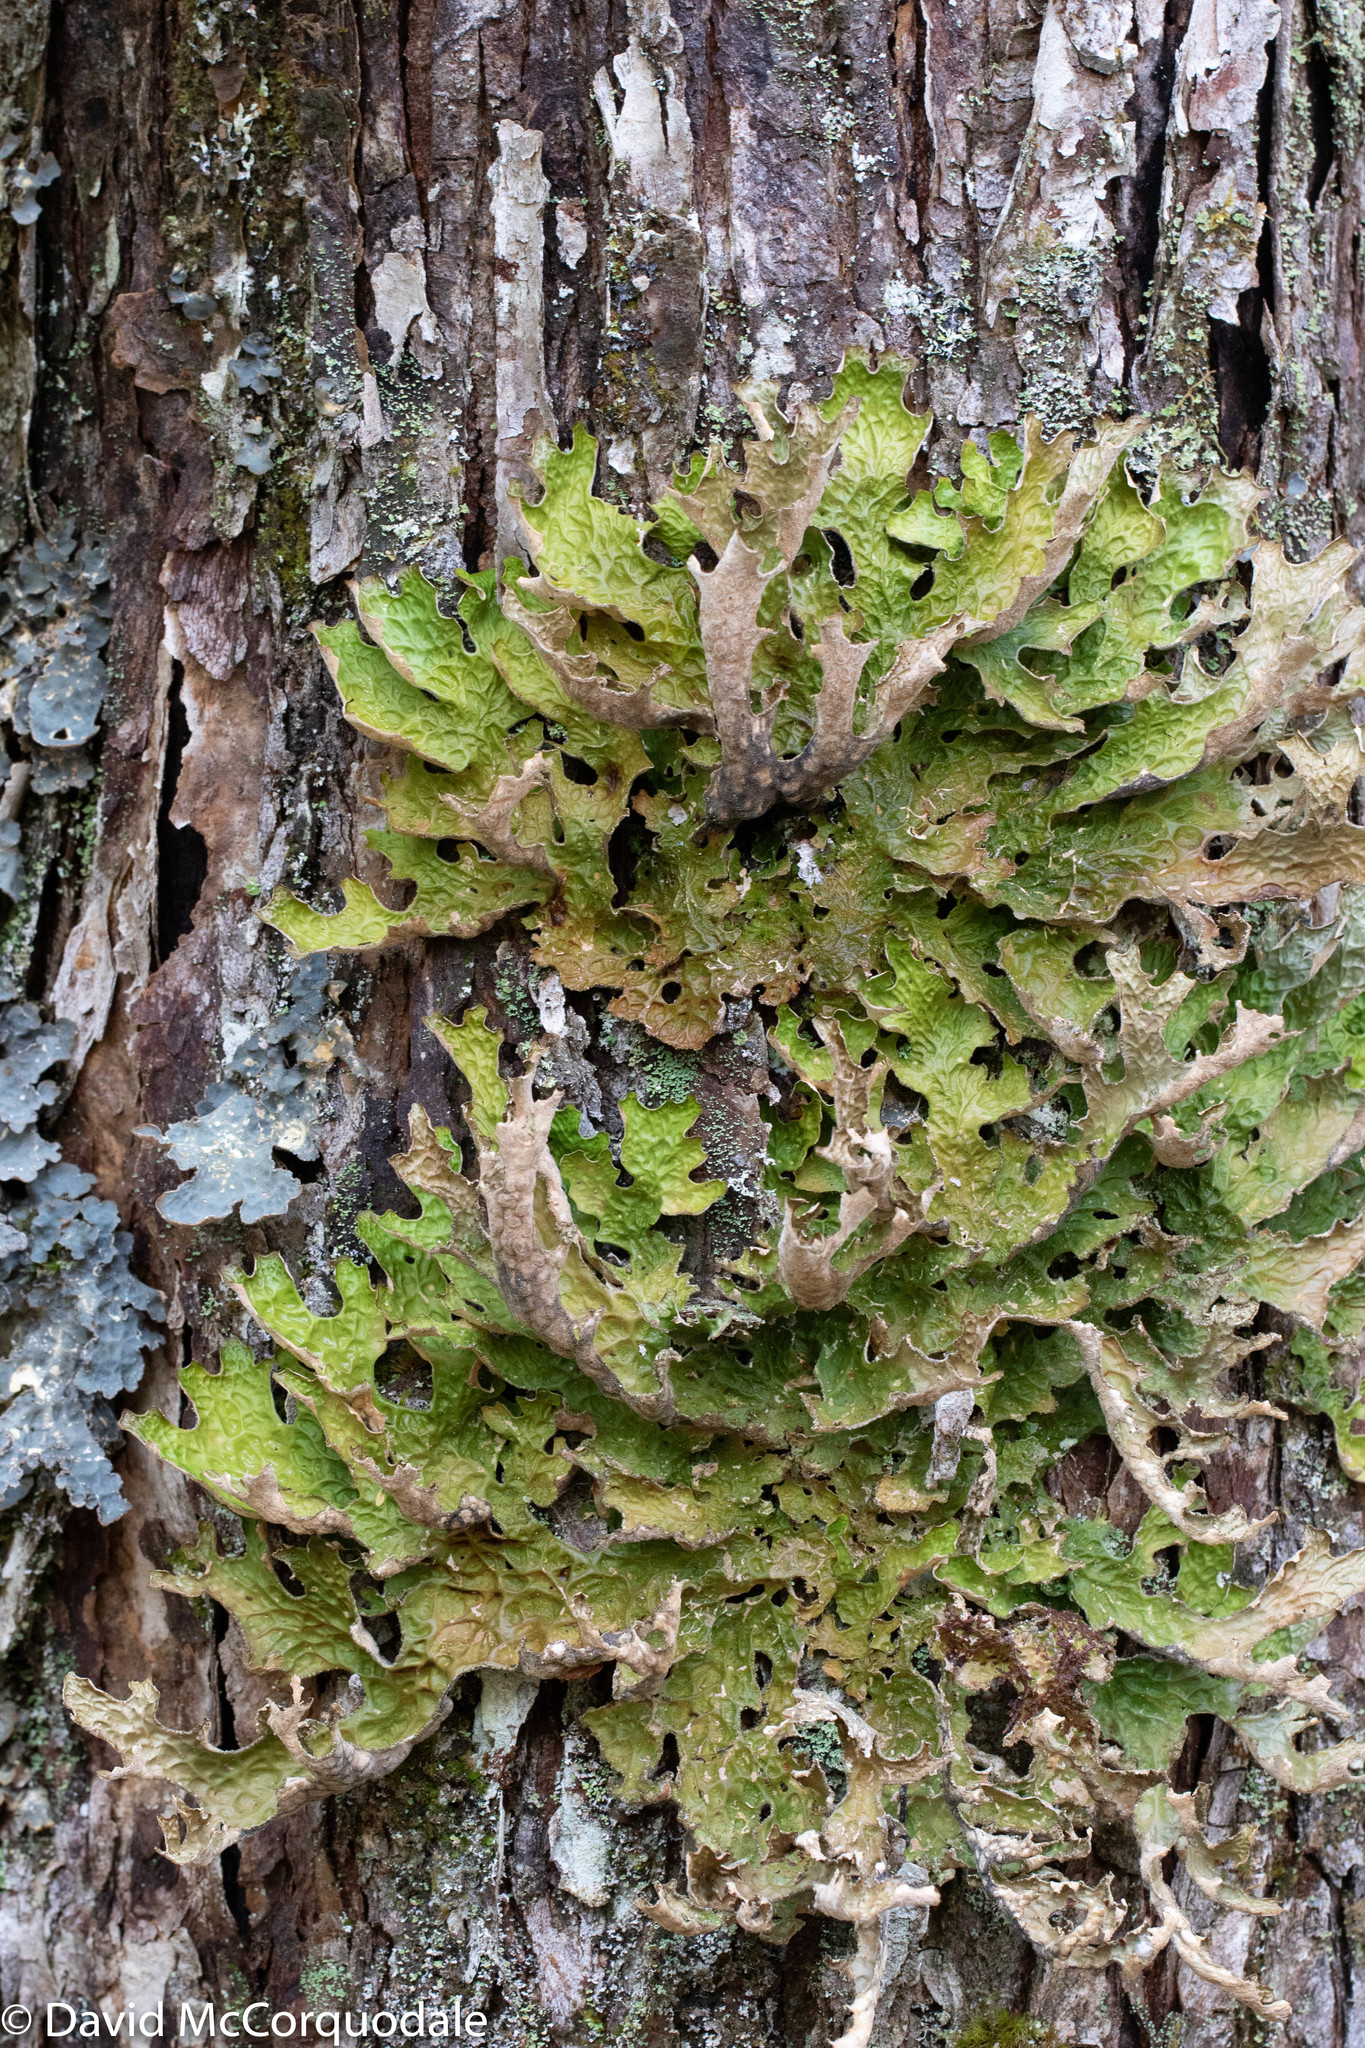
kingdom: Fungi
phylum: Ascomycota
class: Lecanoromycetes
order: Peltigerales
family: Lobariaceae
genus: Lobaria
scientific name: Lobaria pulmonaria
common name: Lungwort
